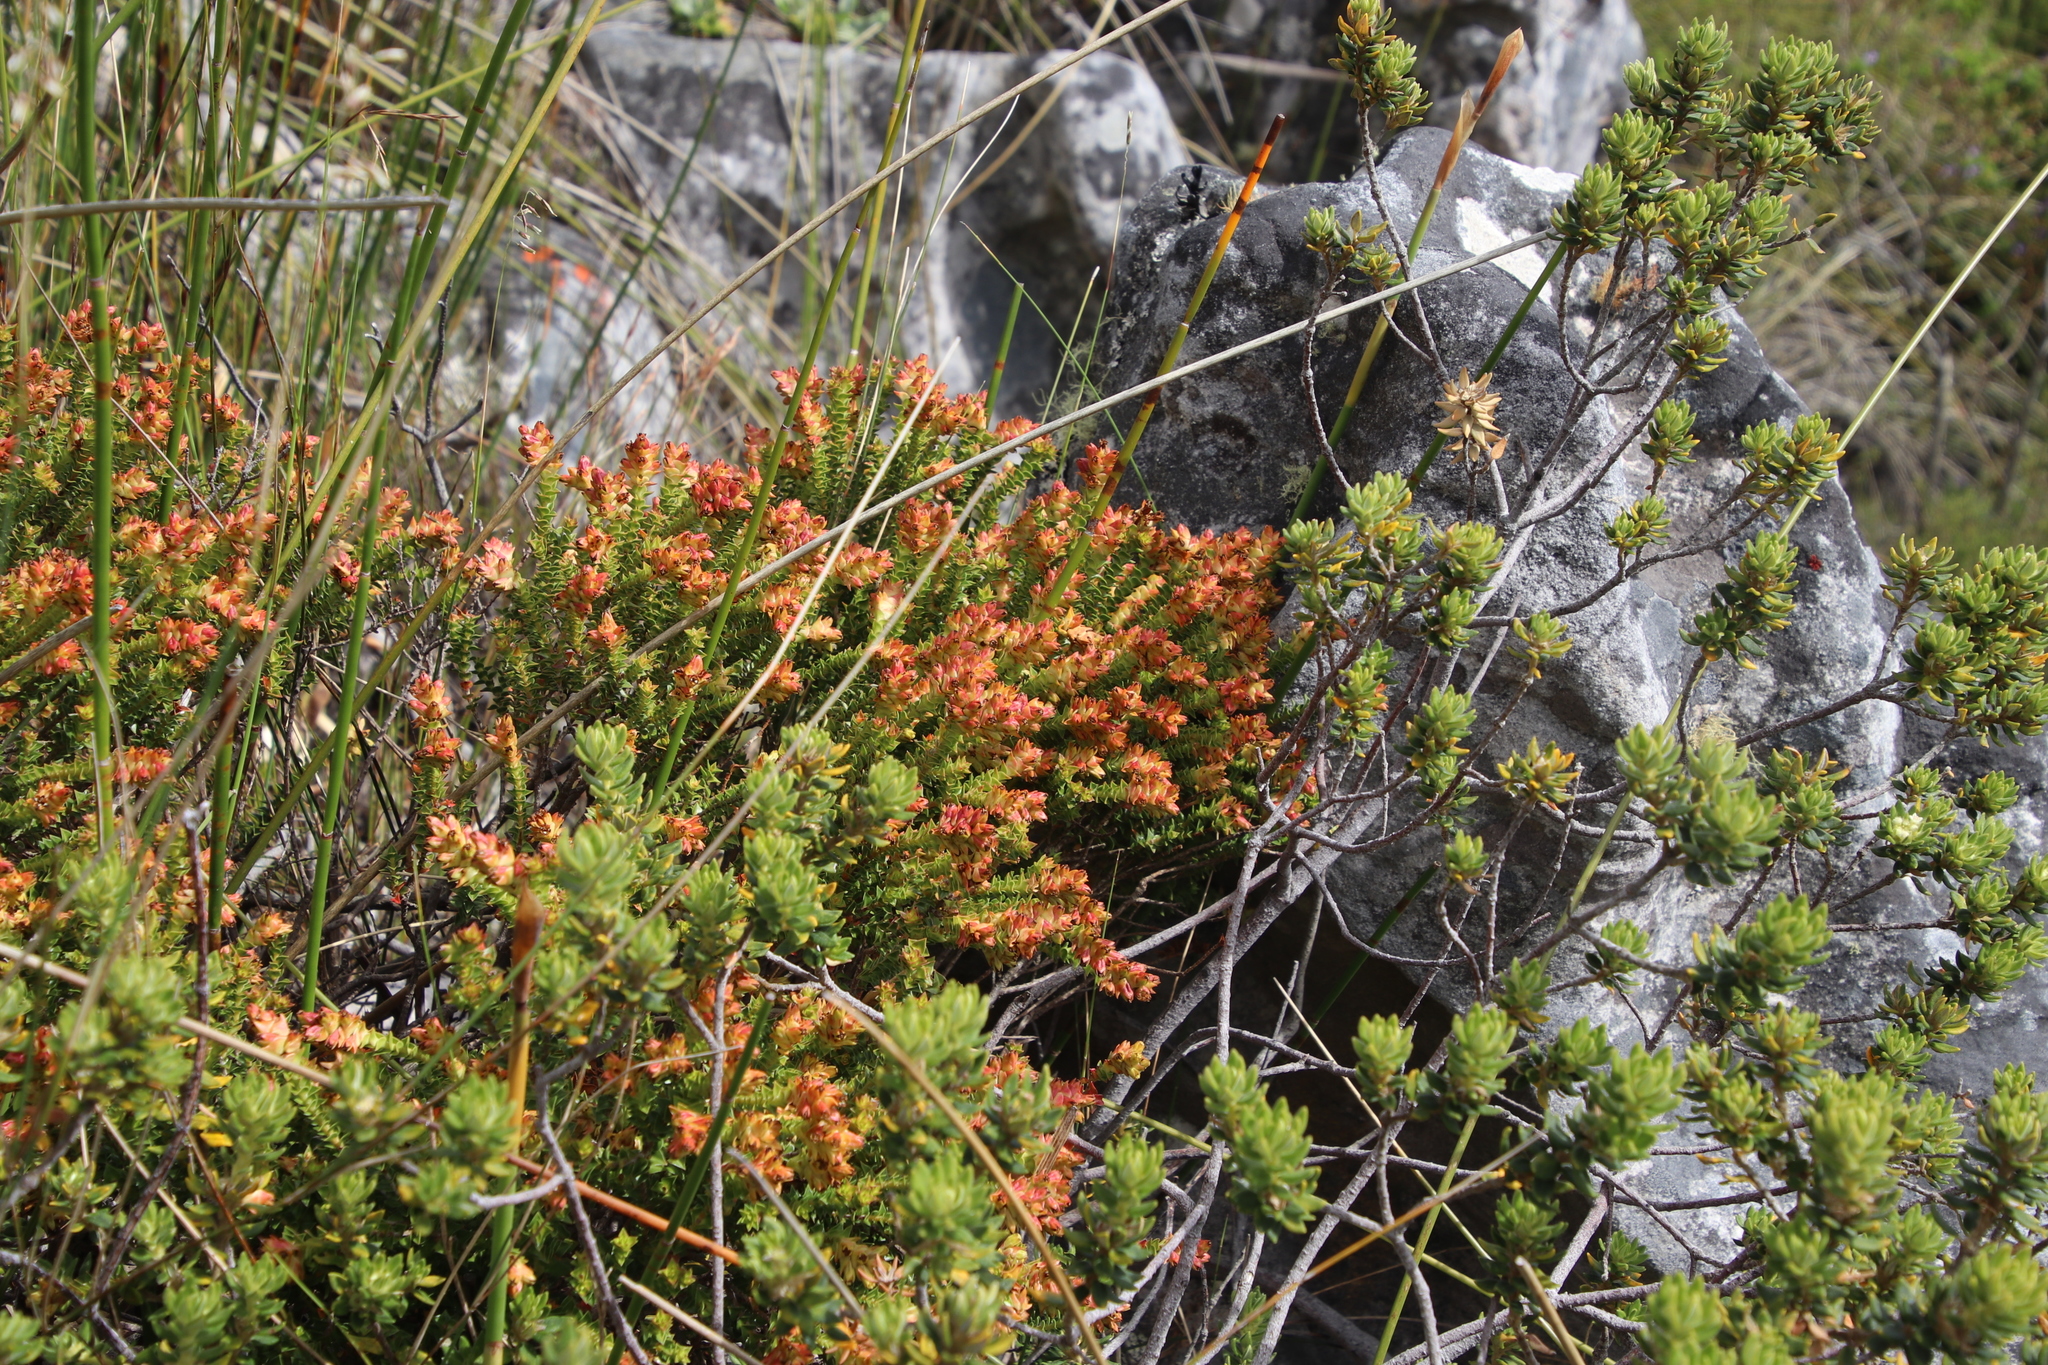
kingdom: Plantae
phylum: Tracheophyta
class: Magnoliopsida
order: Myrtales
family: Penaeaceae
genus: Penaea
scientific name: Penaea mucronata
